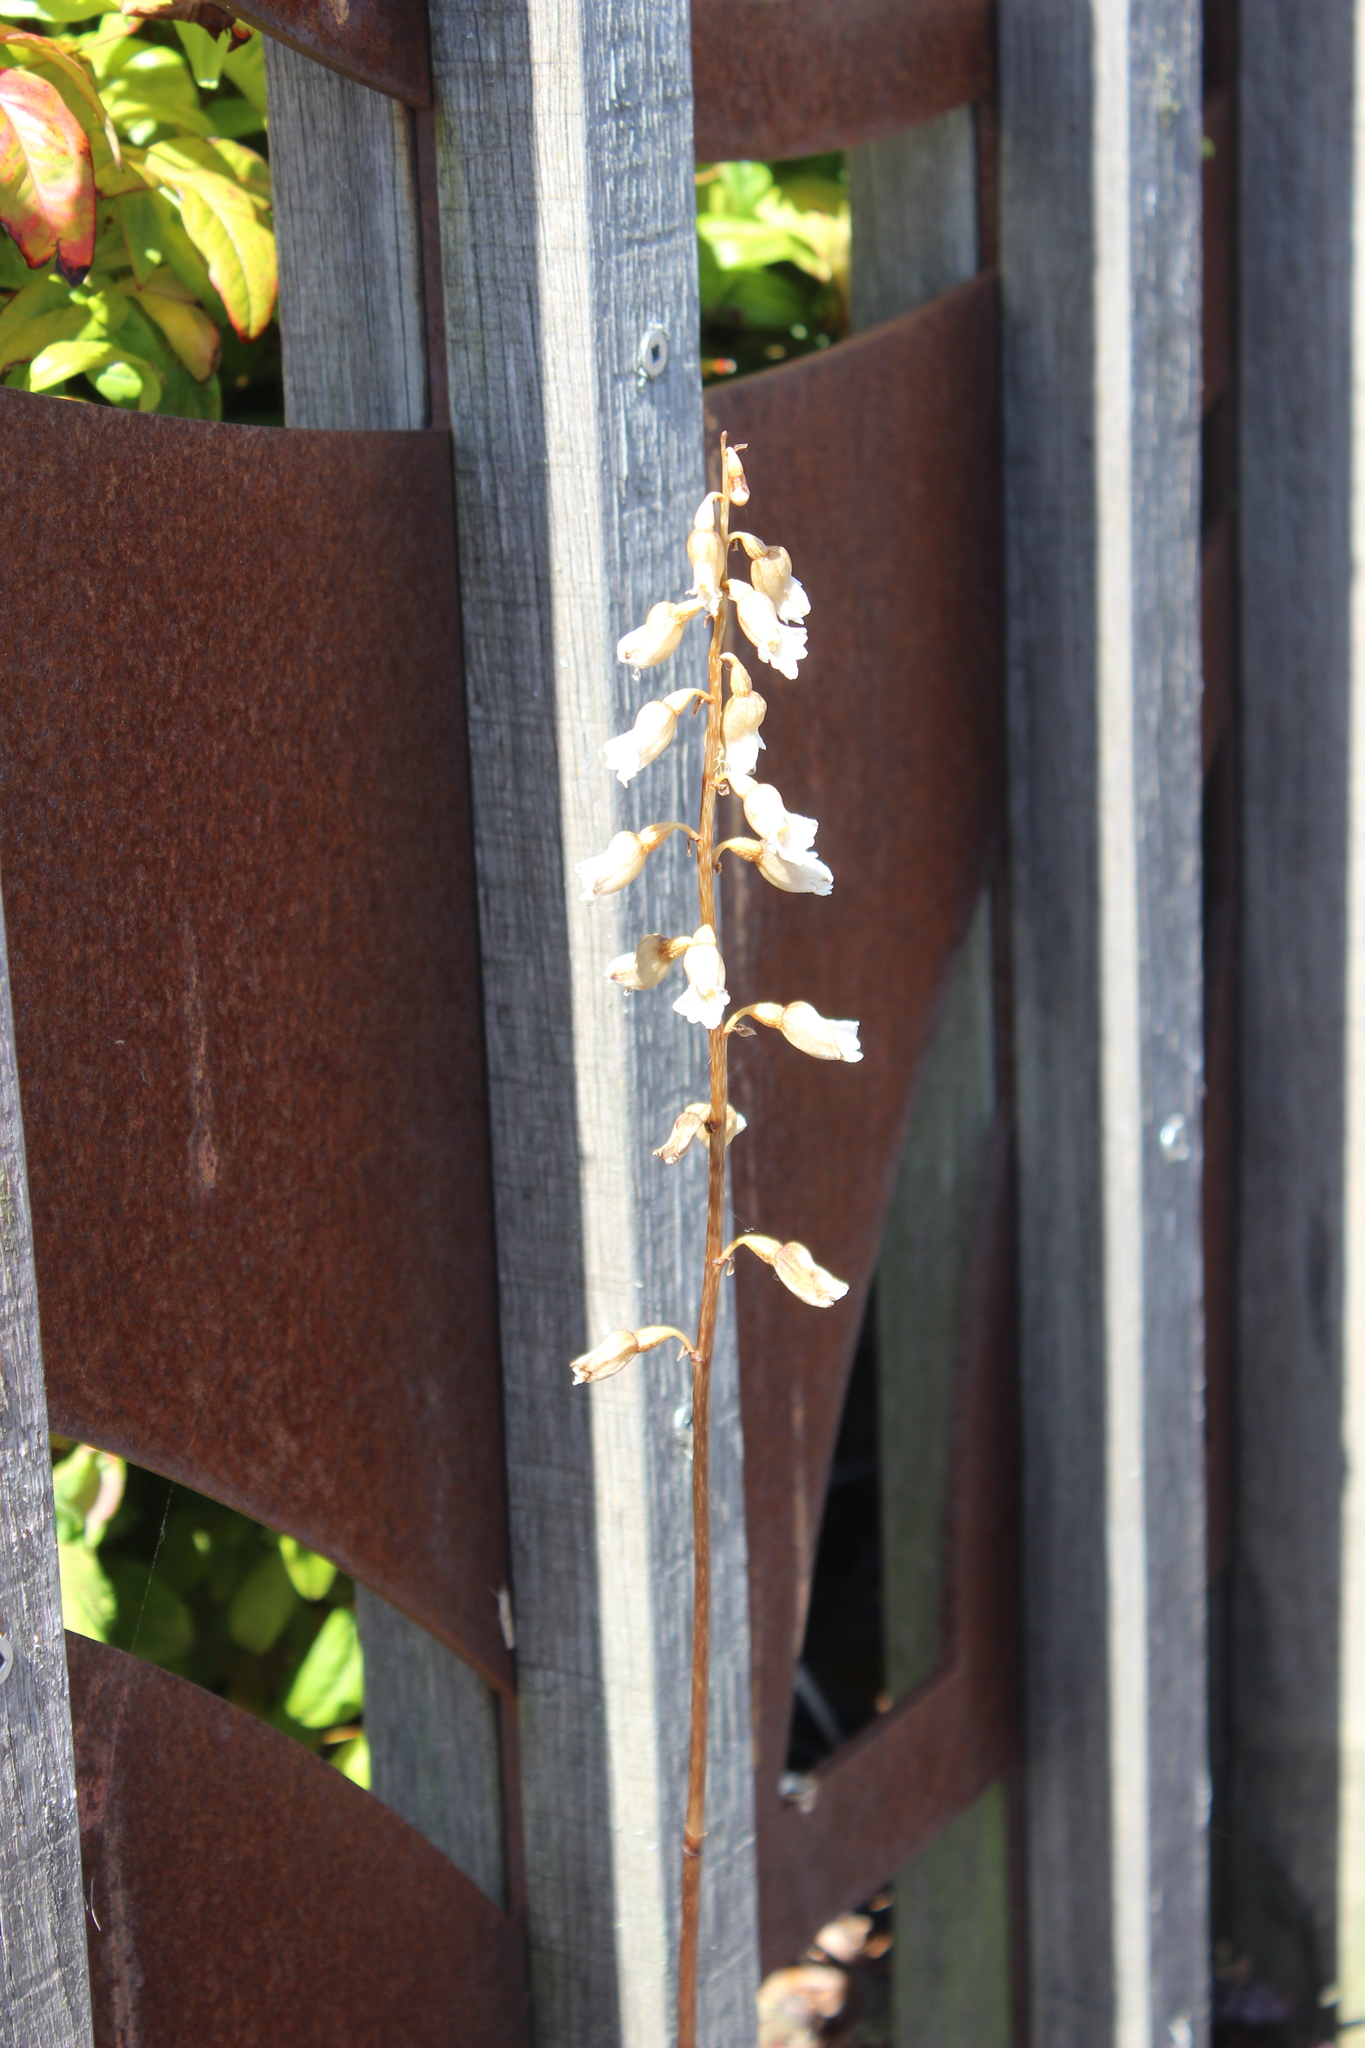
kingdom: Plantae
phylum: Tracheophyta
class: Liliopsida
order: Asparagales
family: Orchidaceae
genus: Gastrodia
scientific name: Gastrodia sesamoides
